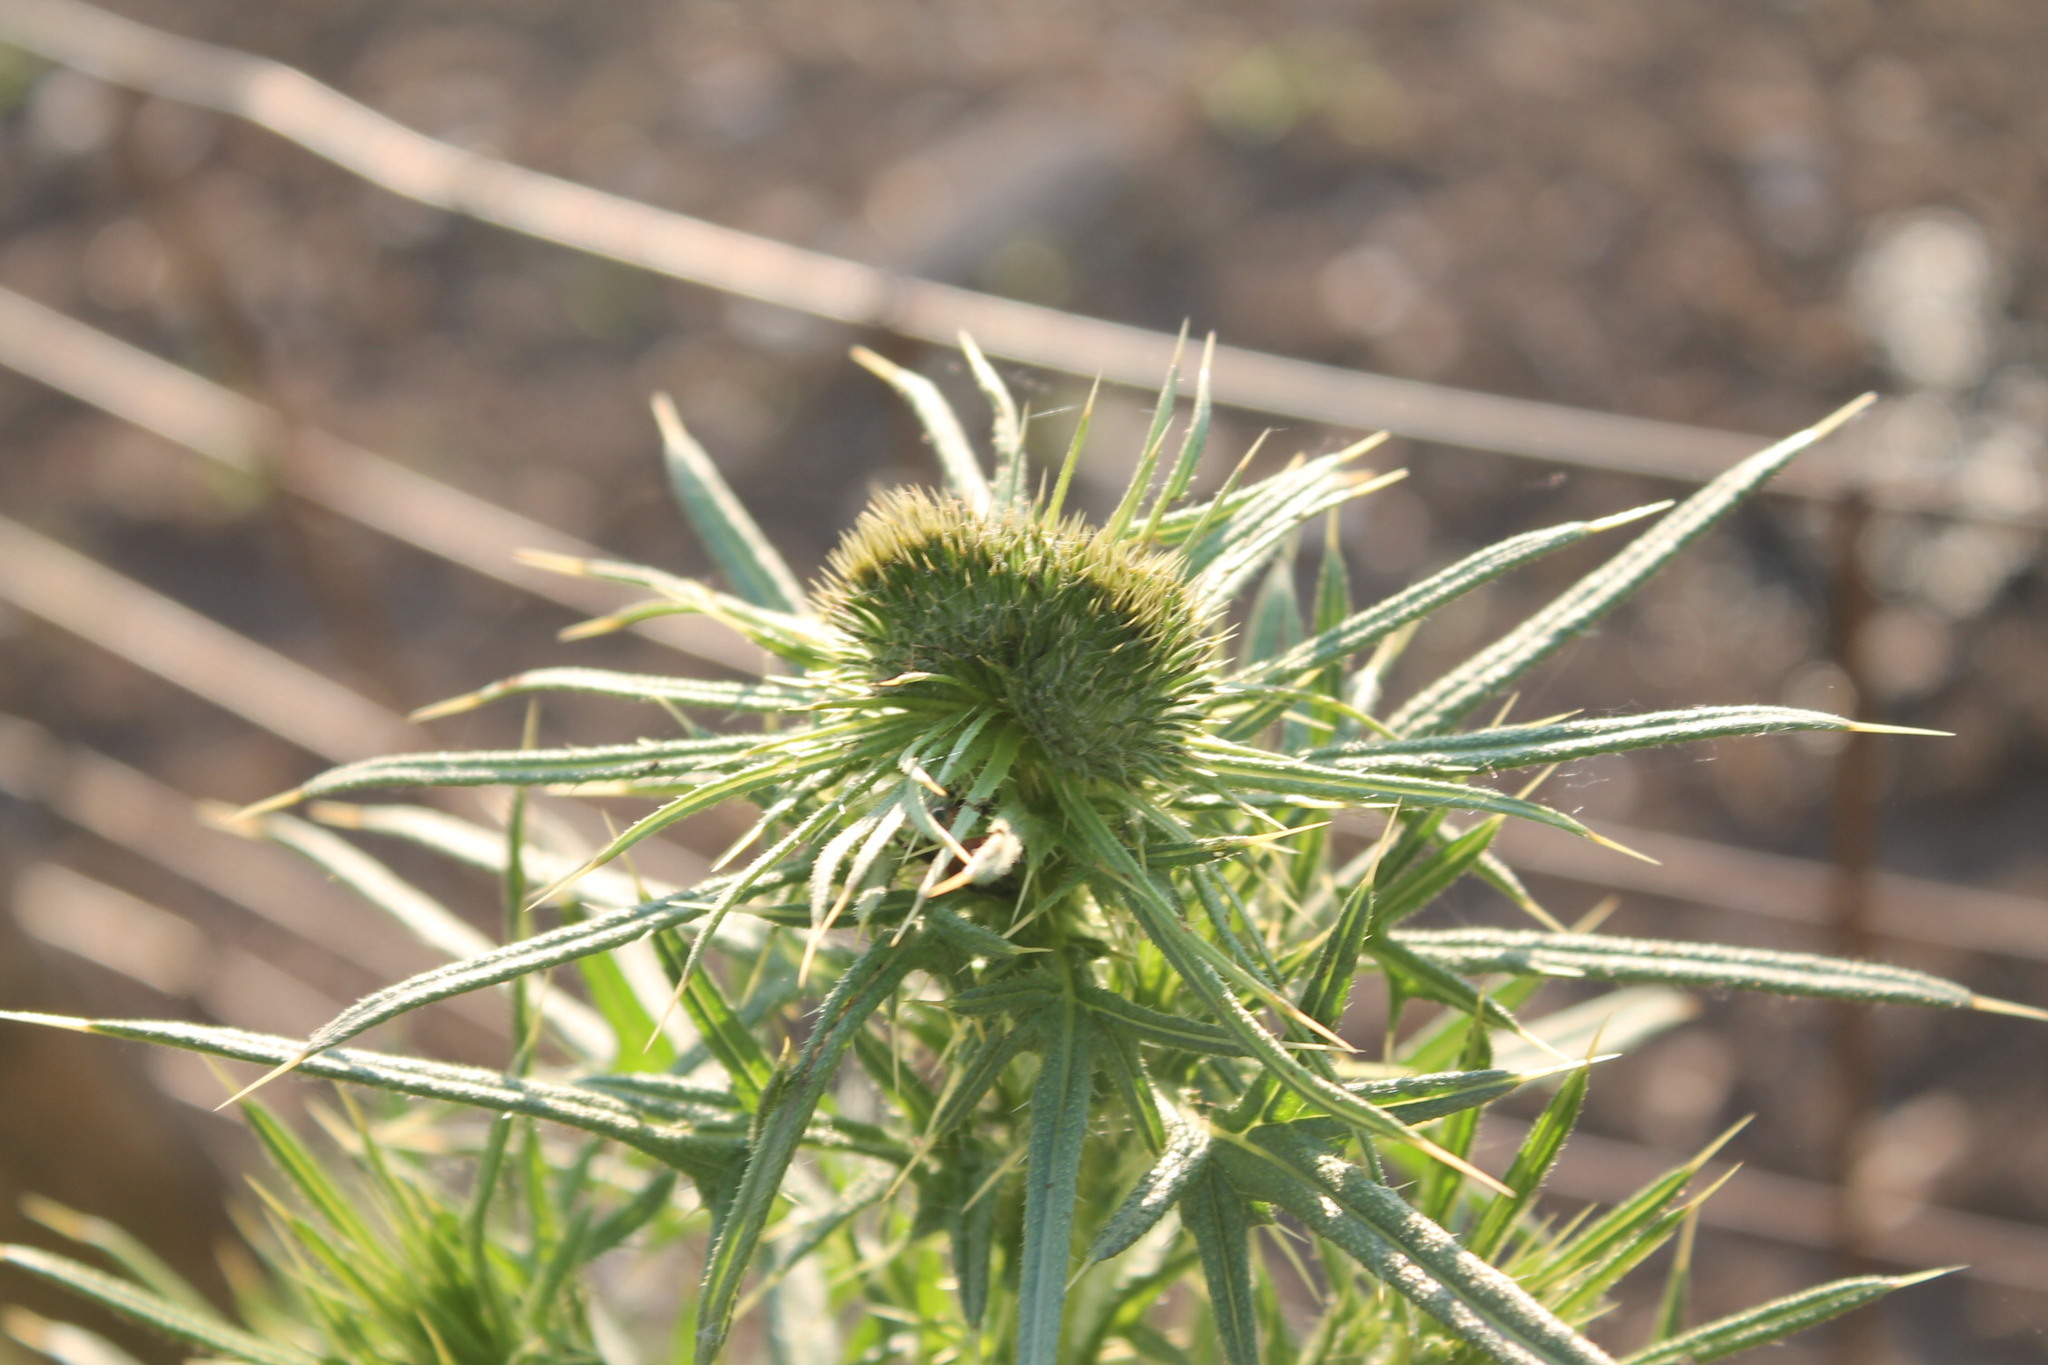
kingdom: Plantae
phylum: Tracheophyta
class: Magnoliopsida
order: Asterales
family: Asteraceae
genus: Cirsium
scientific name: Cirsium vulgare
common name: Bull thistle
